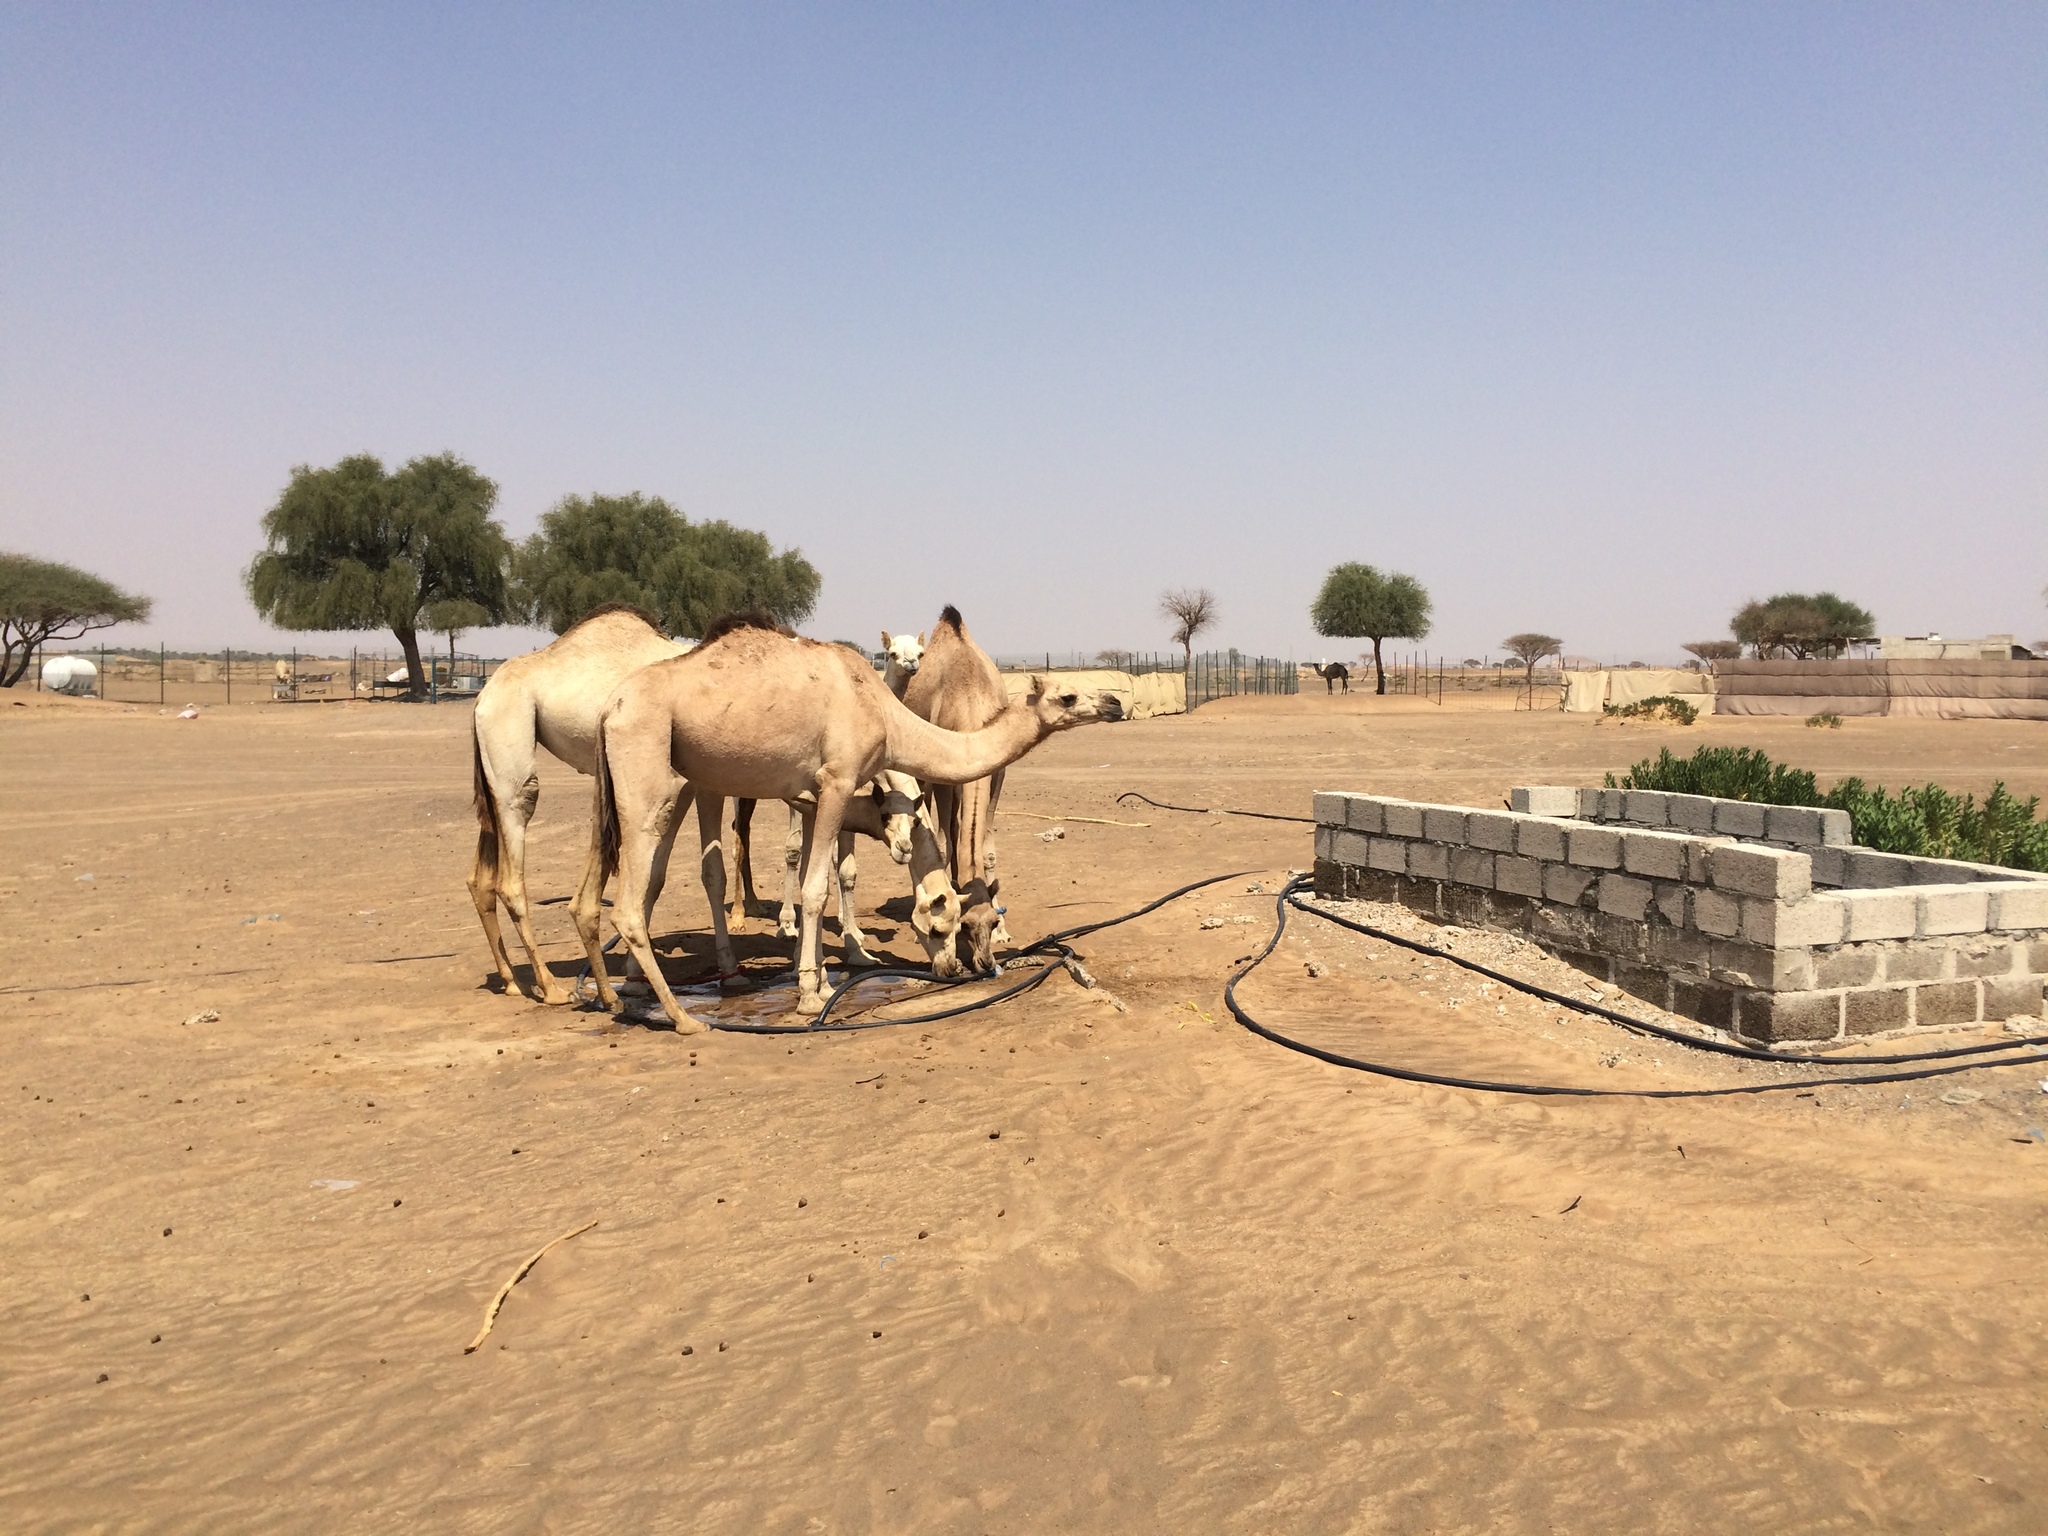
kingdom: Animalia
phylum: Chordata
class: Mammalia
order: Artiodactyla
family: Camelidae
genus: Camelus
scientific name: Camelus dromedarius
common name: One-humped camel
